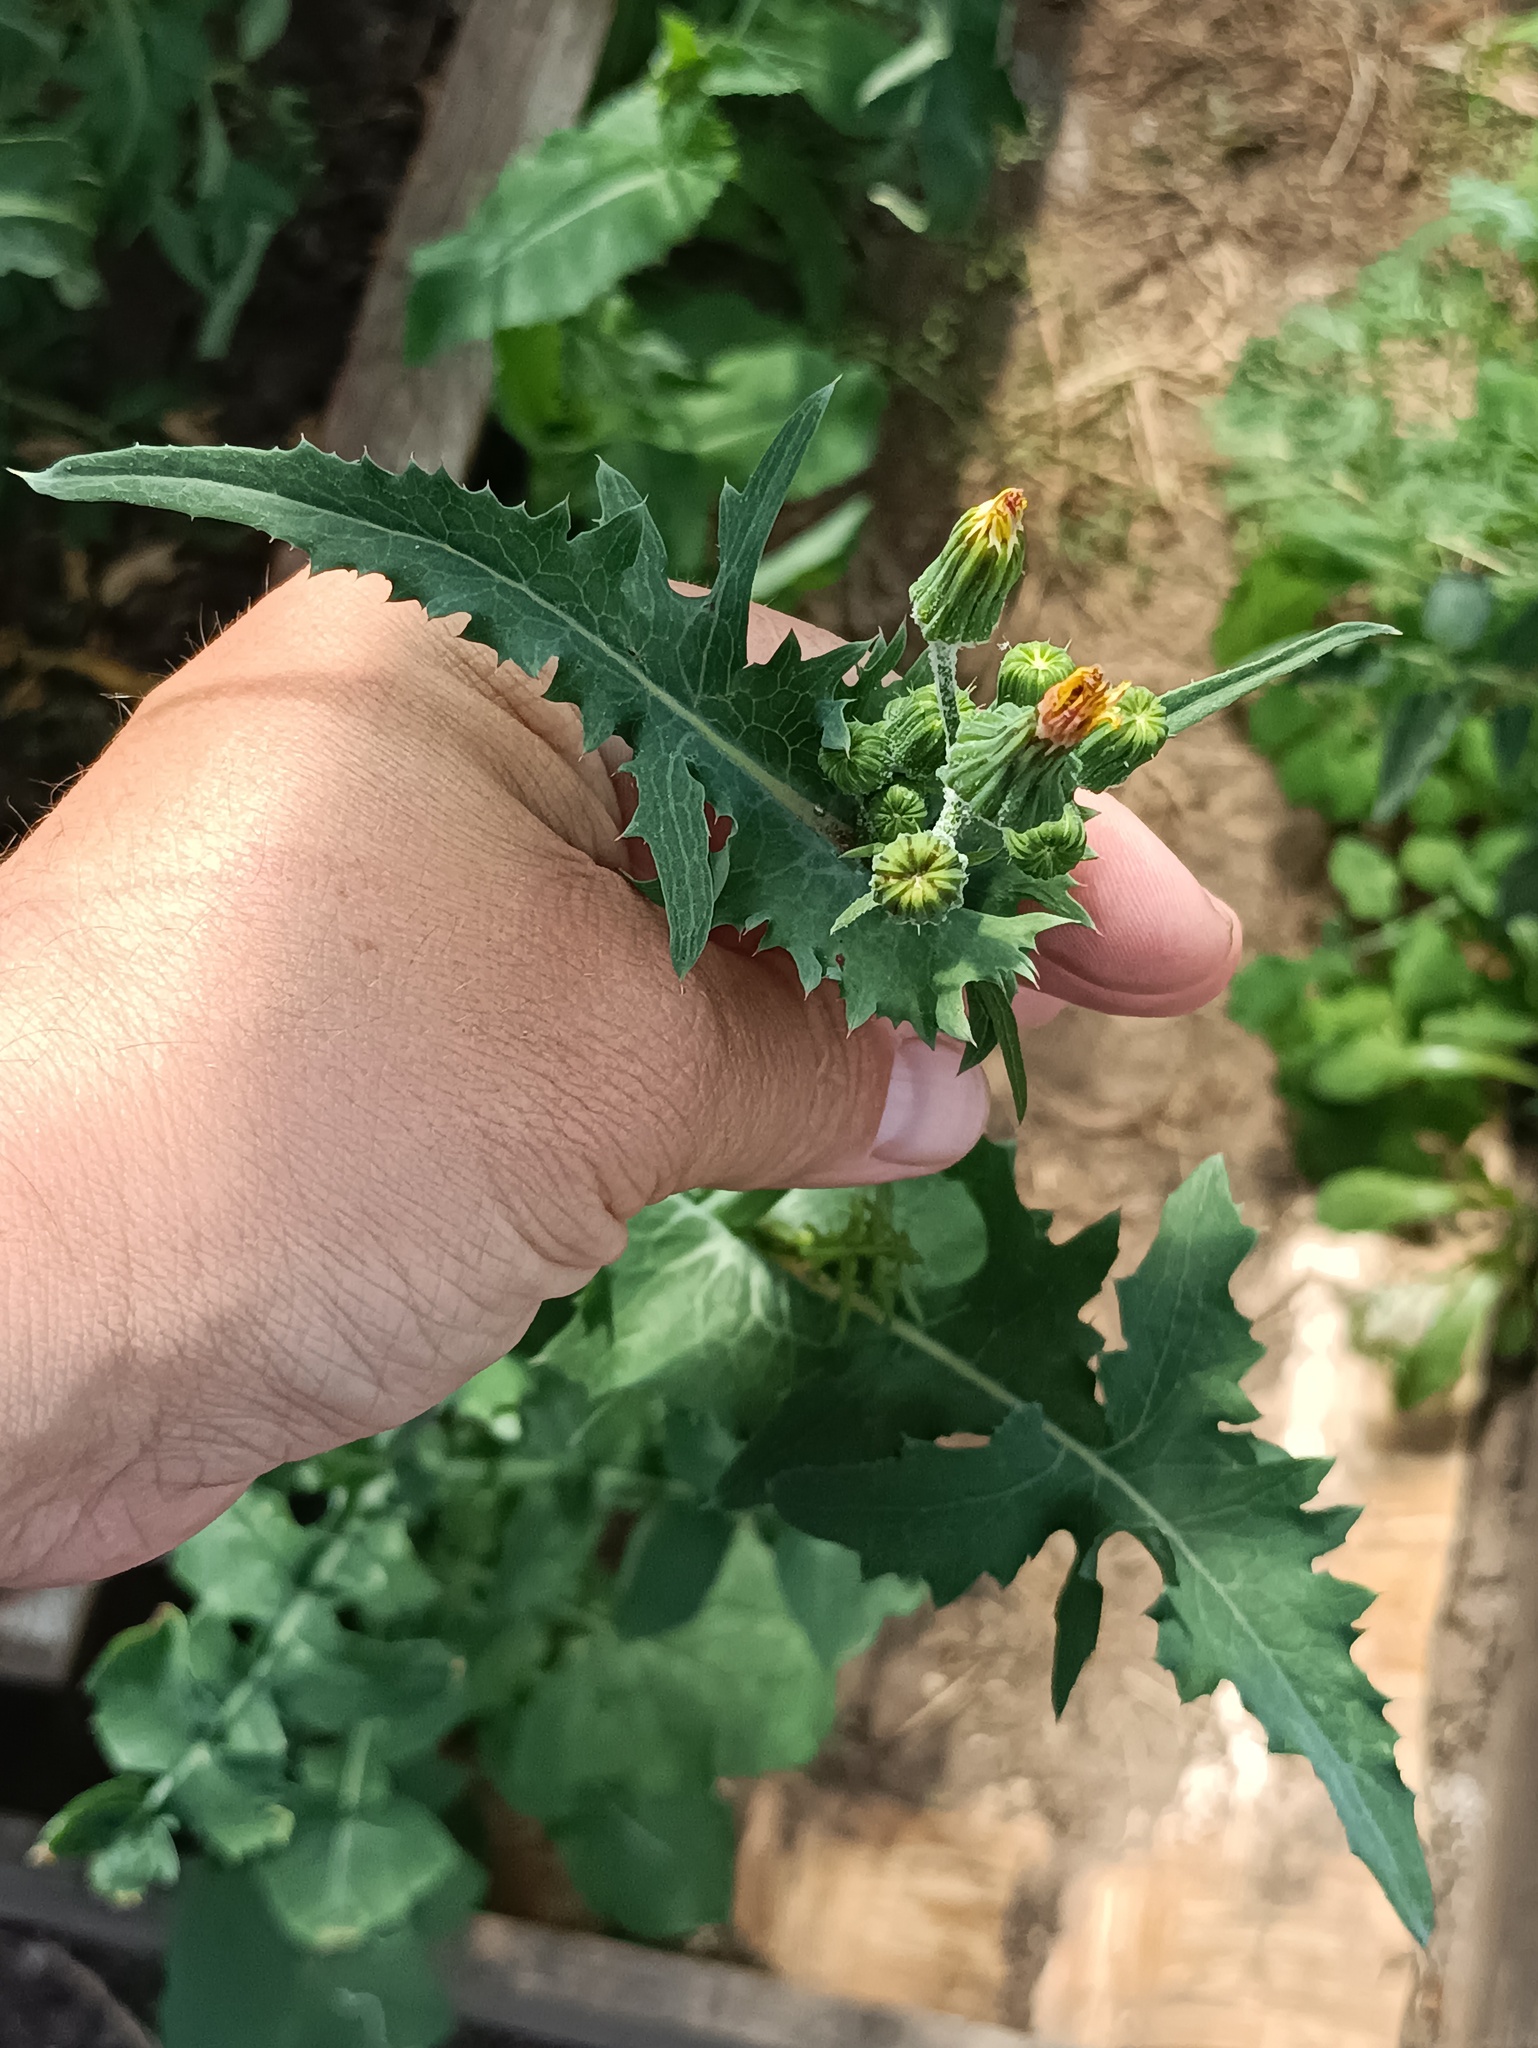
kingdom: Plantae
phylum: Tracheophyta
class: Magnoliopsida
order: Asterales
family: Asteraceae
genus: Sonchus
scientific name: Sonchus oleraceus
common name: Common sowthistle
